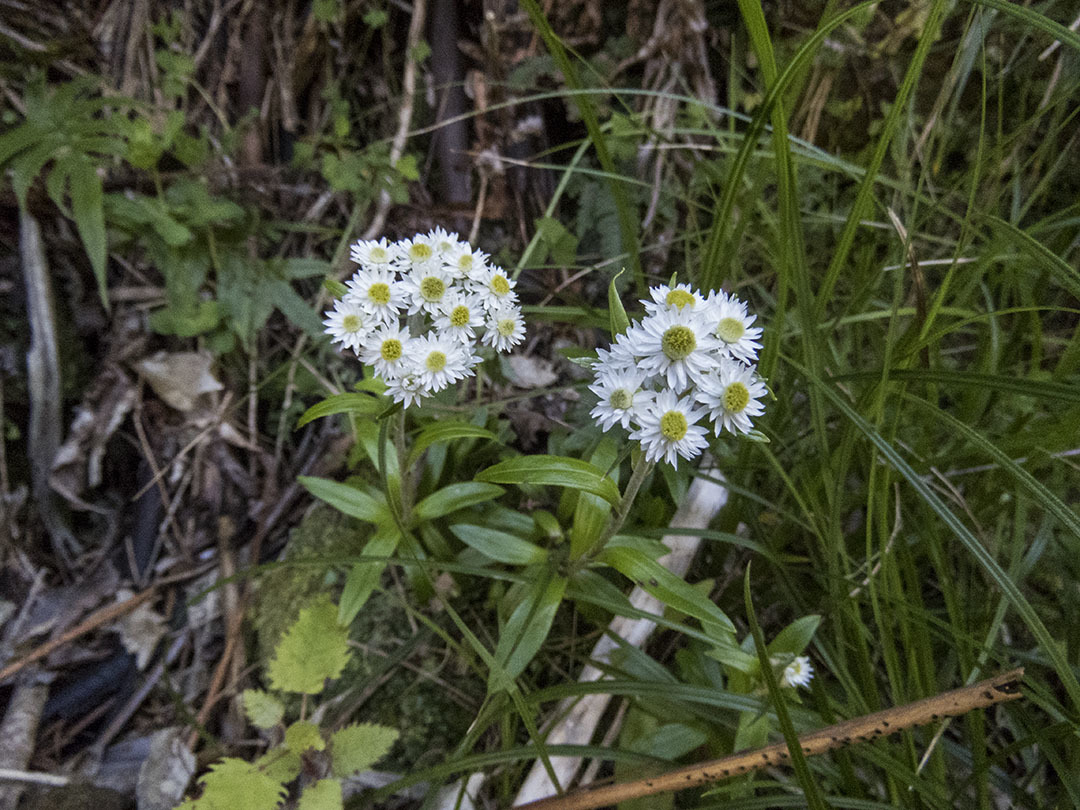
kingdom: Plantae
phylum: Tracheophyta
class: Magnoliopsida
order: Asterales
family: Asteraceae
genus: Anaphalioides
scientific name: Anaphalioides trinervis
